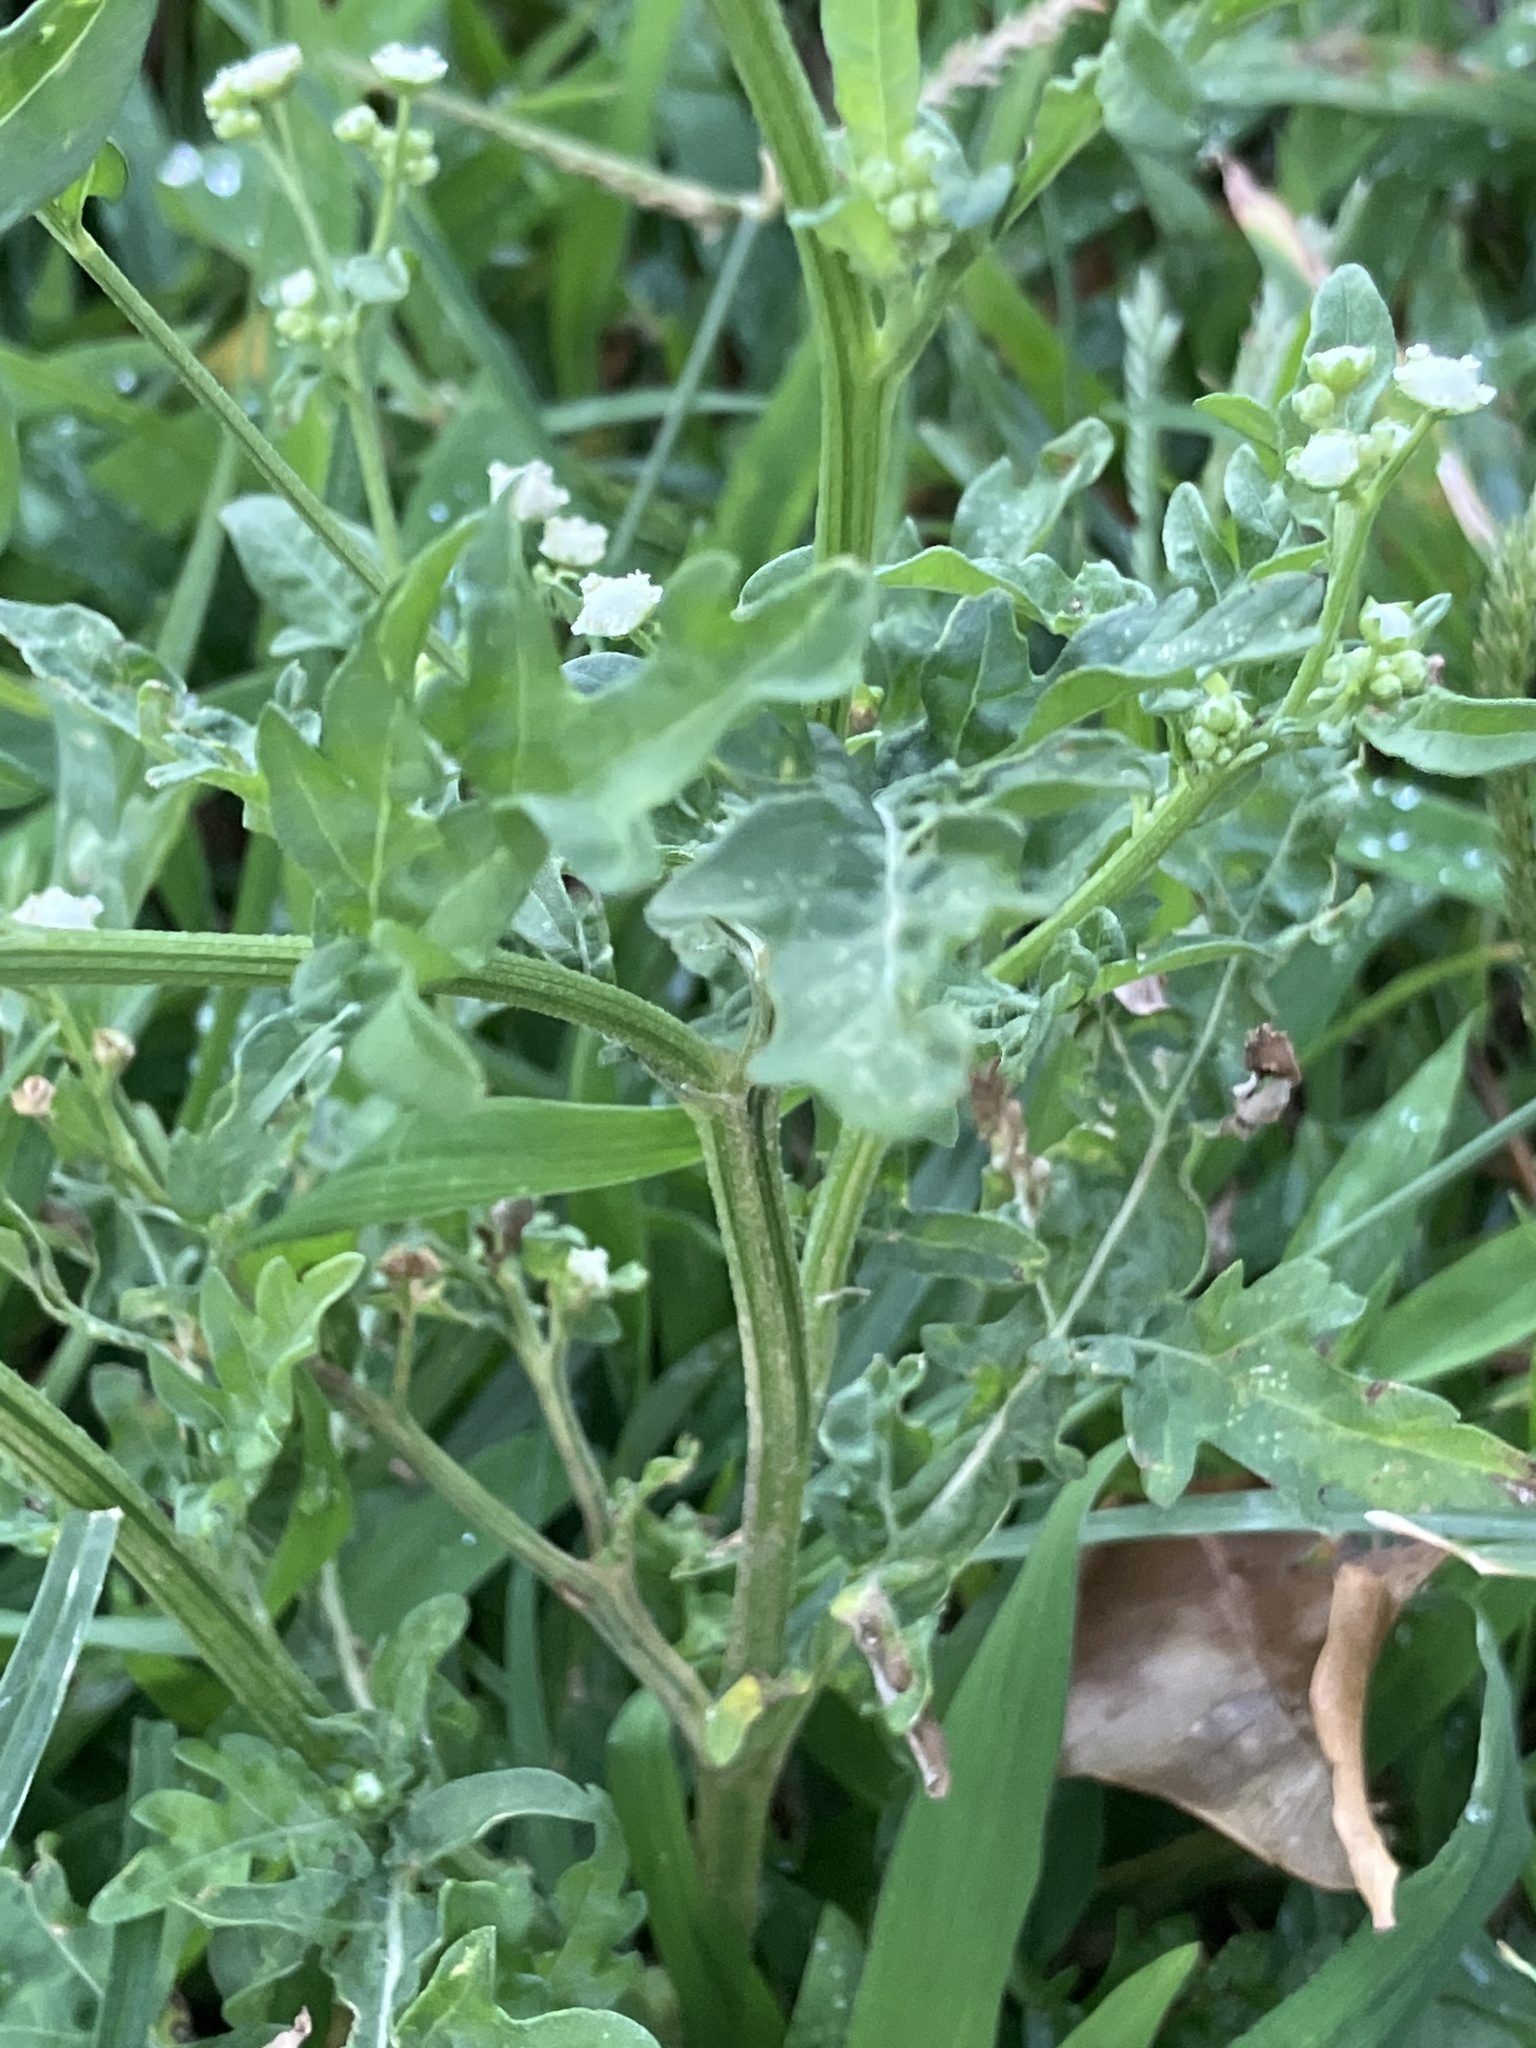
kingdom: Plantae
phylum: Tracheophyta
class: Magnoliopsida
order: Asterales
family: Asteraceae
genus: Parthenium
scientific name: Parthenium hysterophorus
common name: Santa maria feverfew
